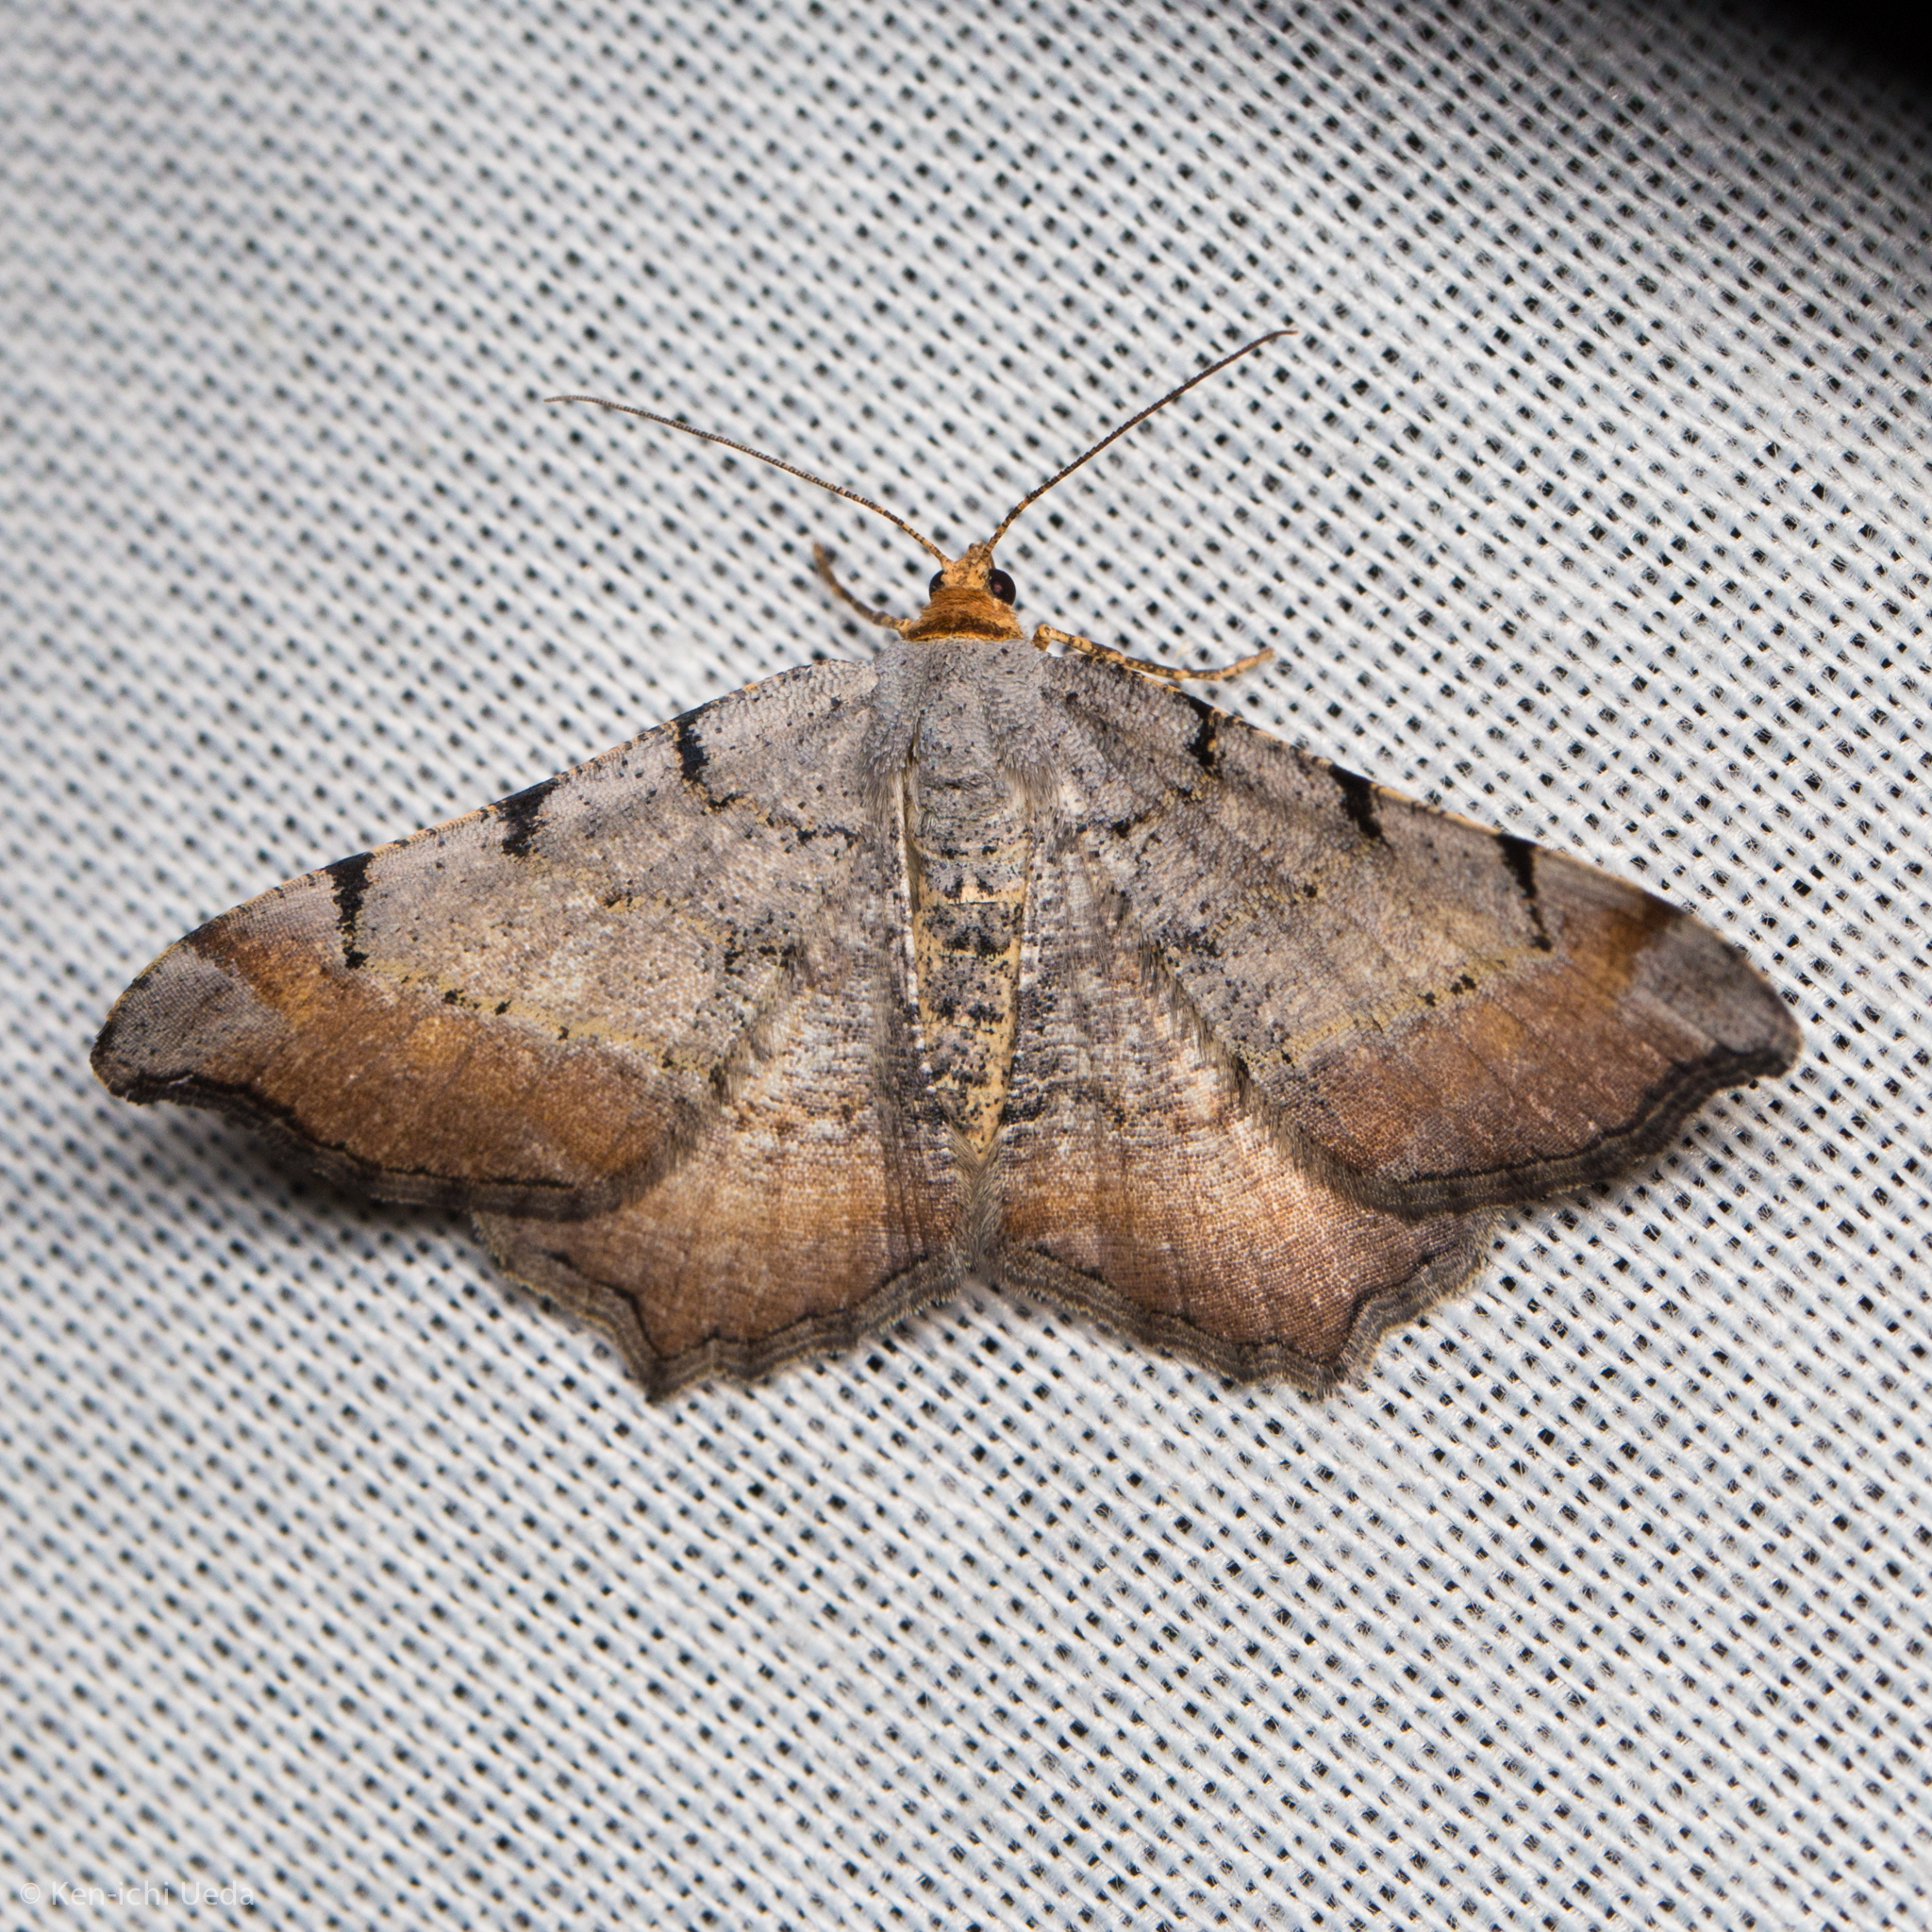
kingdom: Animalia
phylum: Arthropoda
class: Insecta
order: Lepidoptera
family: Geometridae
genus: Macaria
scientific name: Macaria adonis
